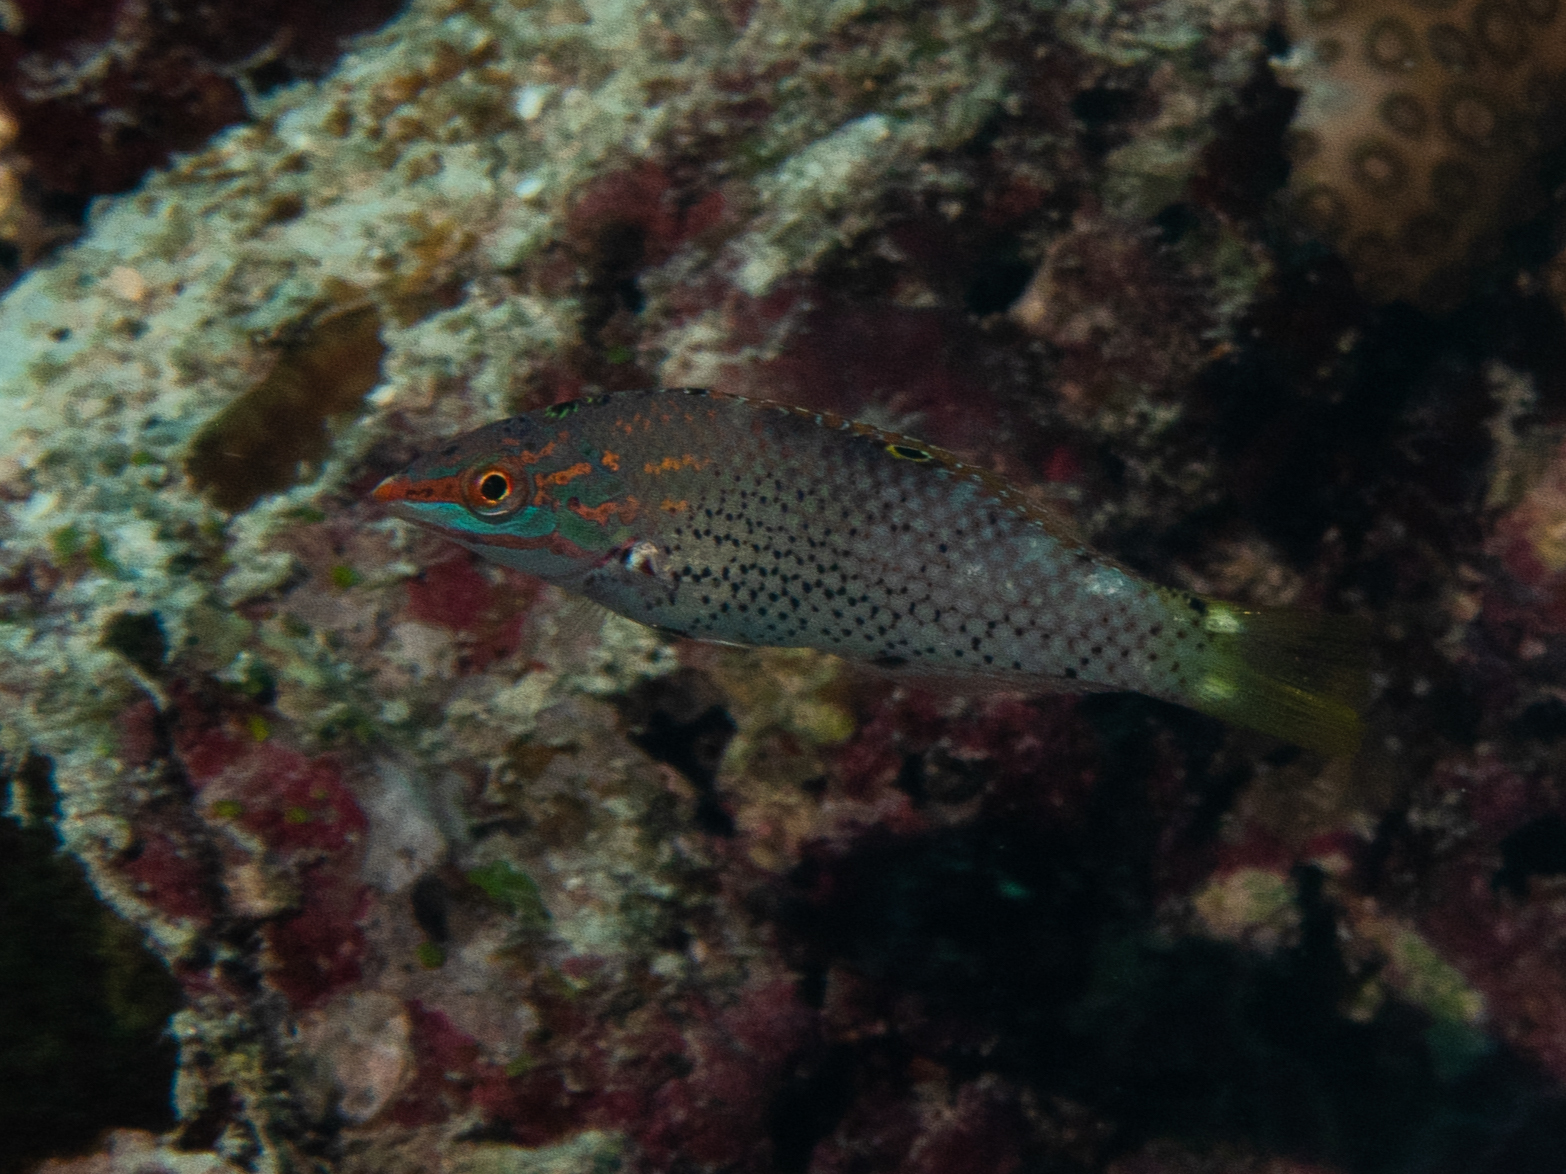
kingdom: Animalia
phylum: Chordata
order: Perciformes
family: Labridae
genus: Halichoeres
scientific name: Halichoeres hortulanus
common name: Checkerboard wrasse
